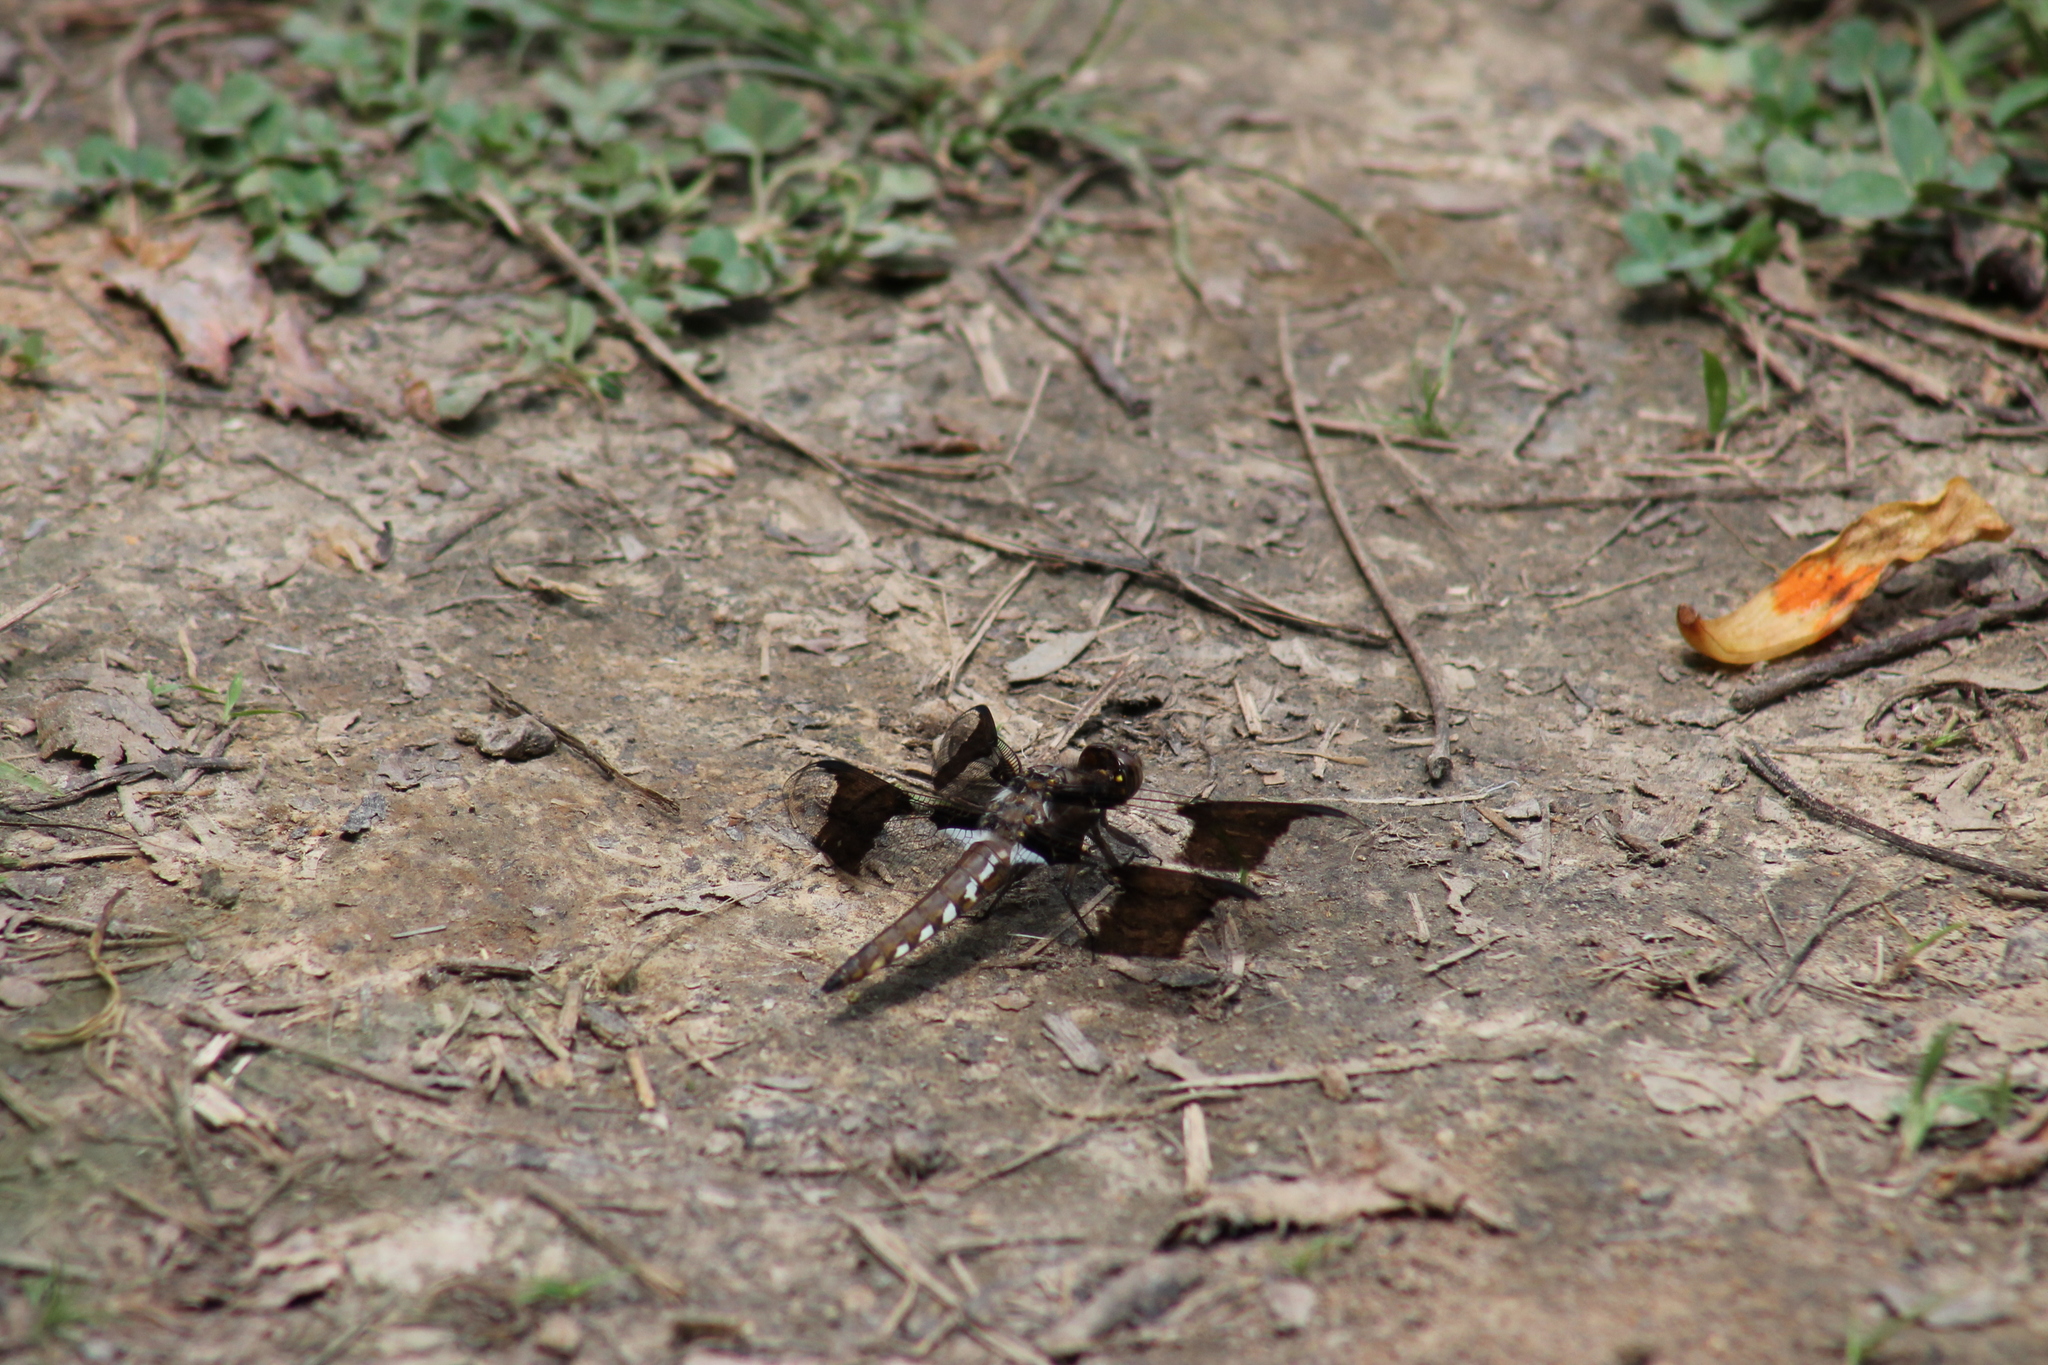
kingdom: Animalia
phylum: Arthropoda
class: Insecta
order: Odonata
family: Libellulidae
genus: Plathemis
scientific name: Plathemis lydia
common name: Common whitetail
